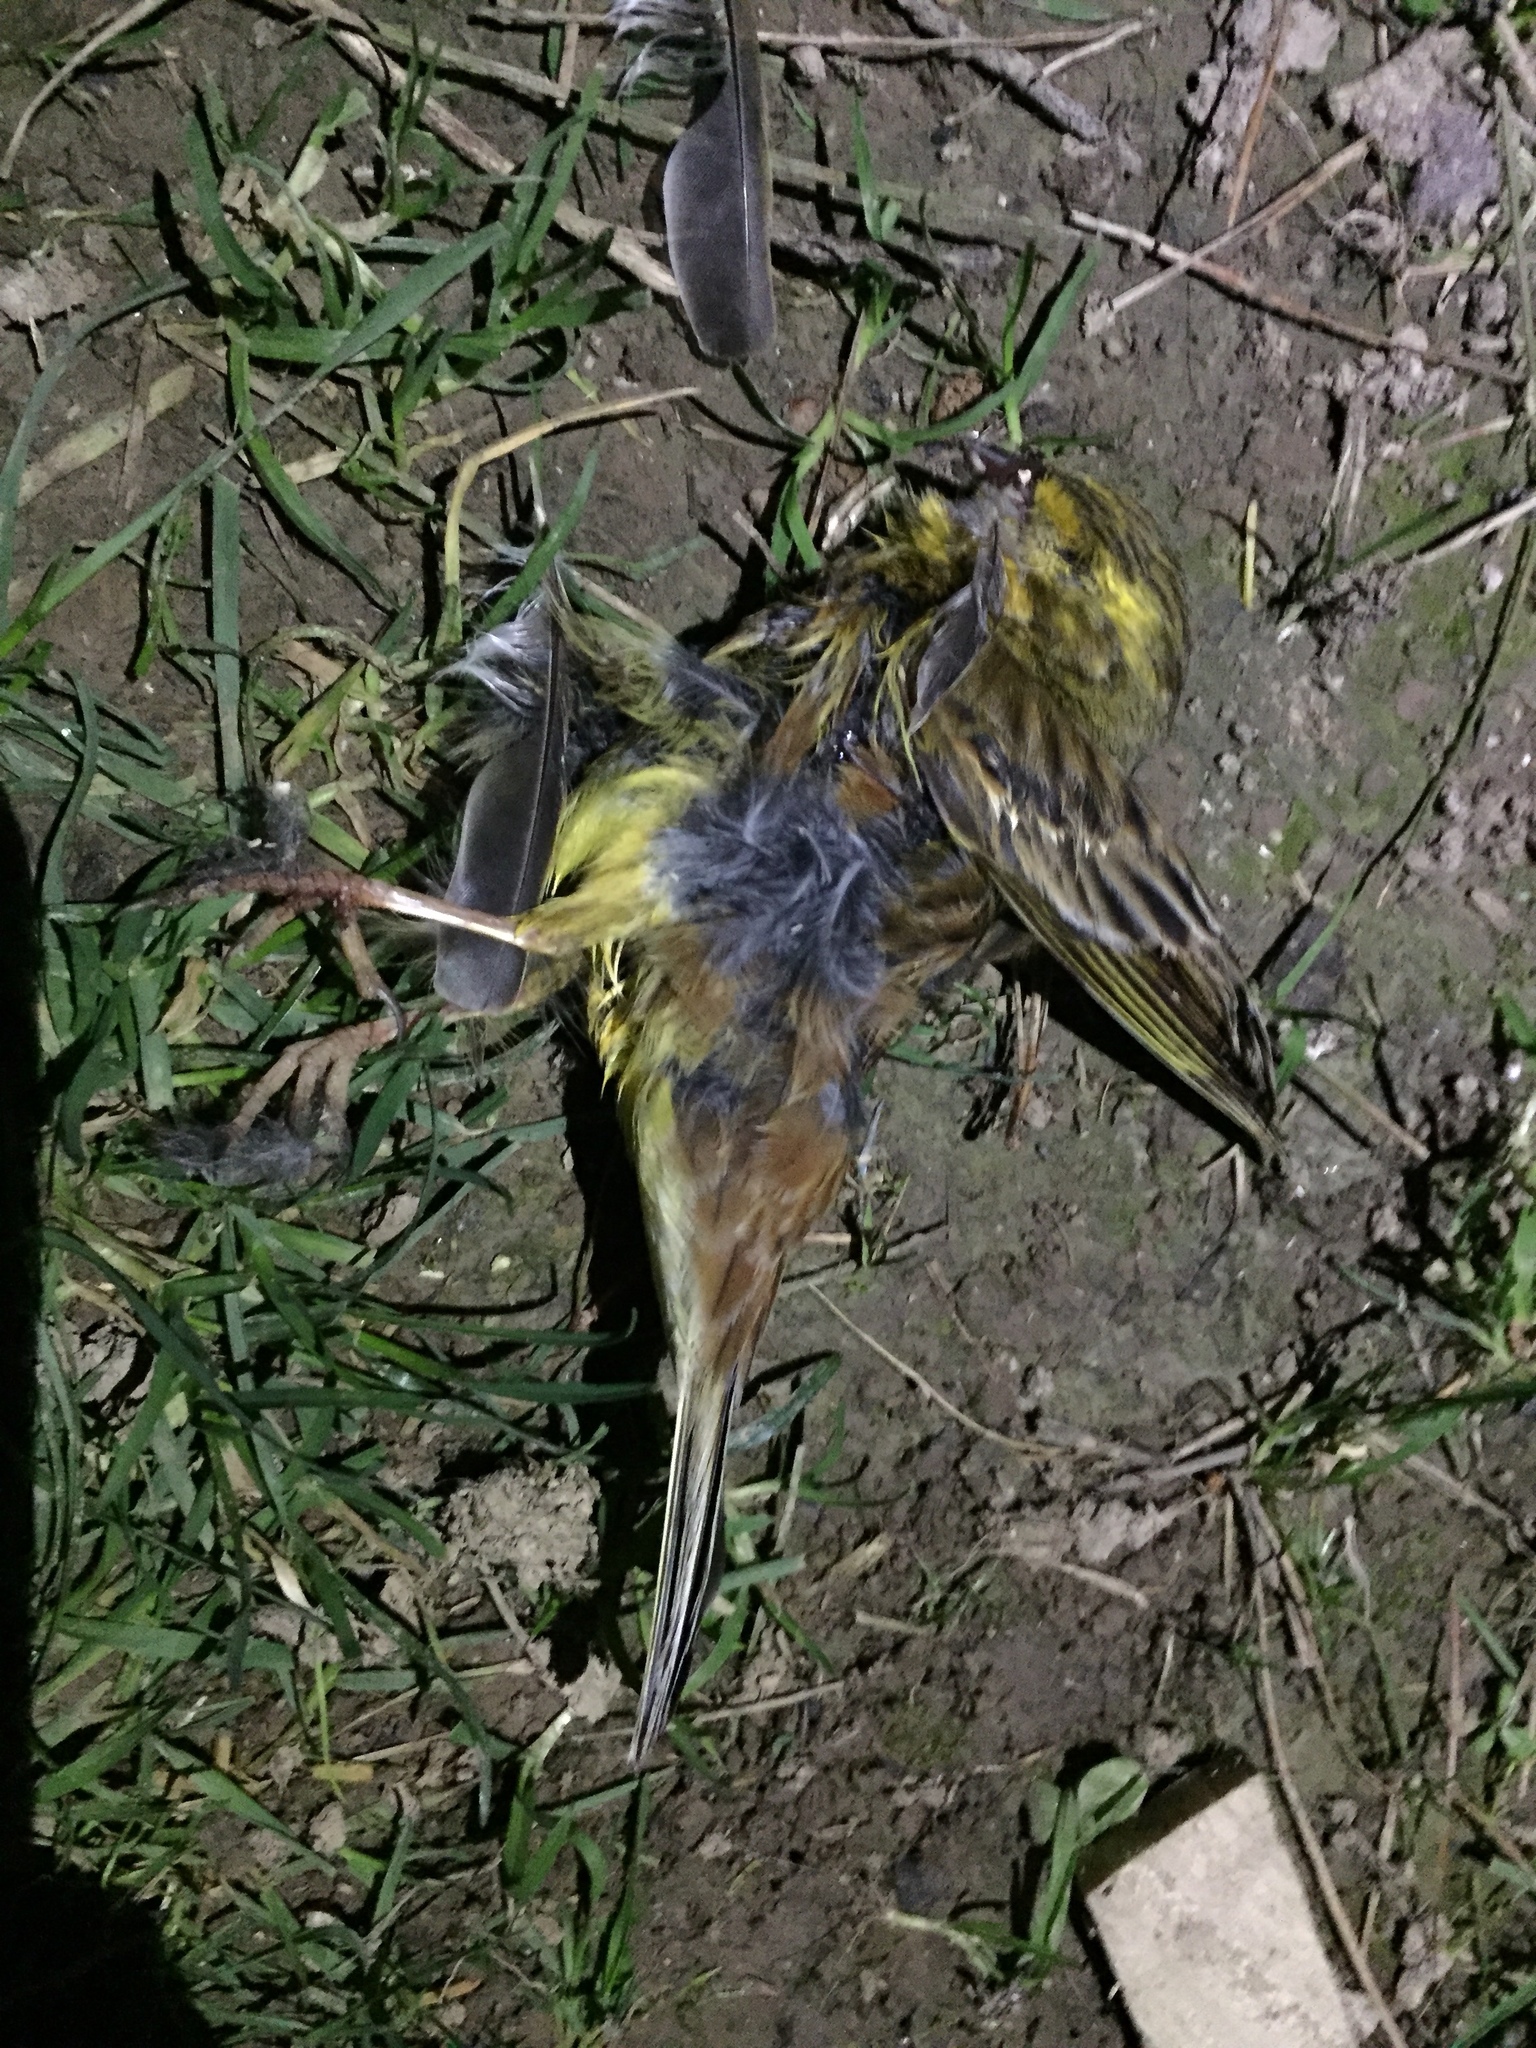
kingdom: Animalia
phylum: Chordata
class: Aves
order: Passeriformes
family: Emberizidae
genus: Emberiza
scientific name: Emberiza citrinella
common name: Yellowhammer
